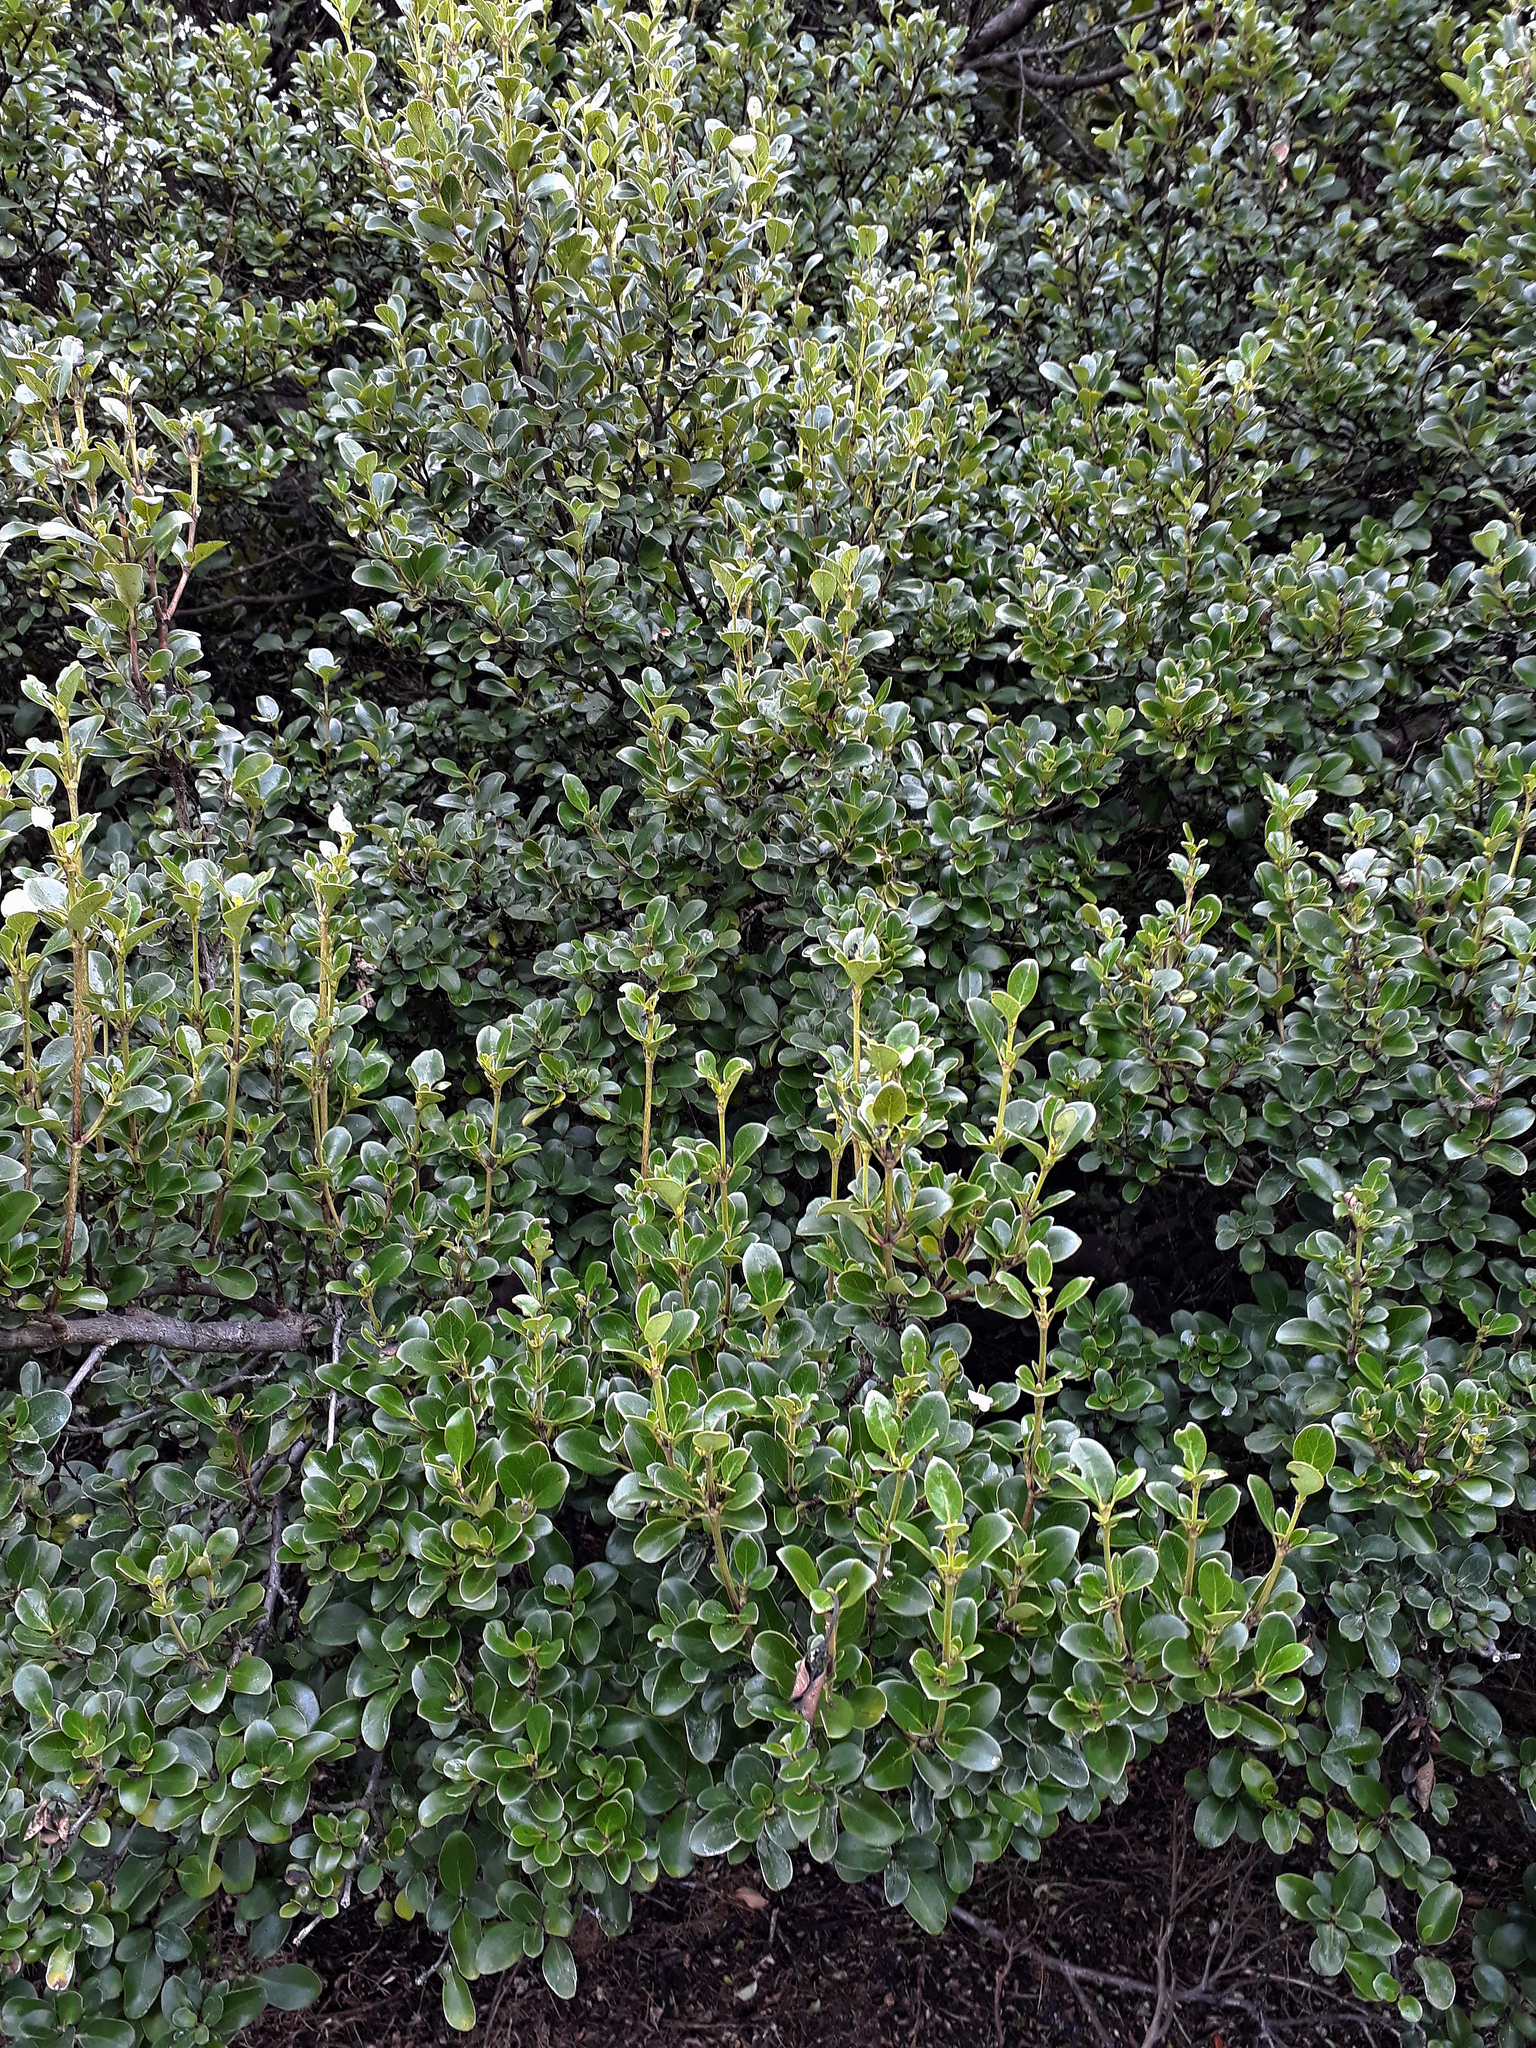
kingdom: Plantae
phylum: Tracheophyta
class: Magnoliopsida
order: Gentianales
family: Rubiaceae
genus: Coprosma
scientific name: Coprosma chathamica
